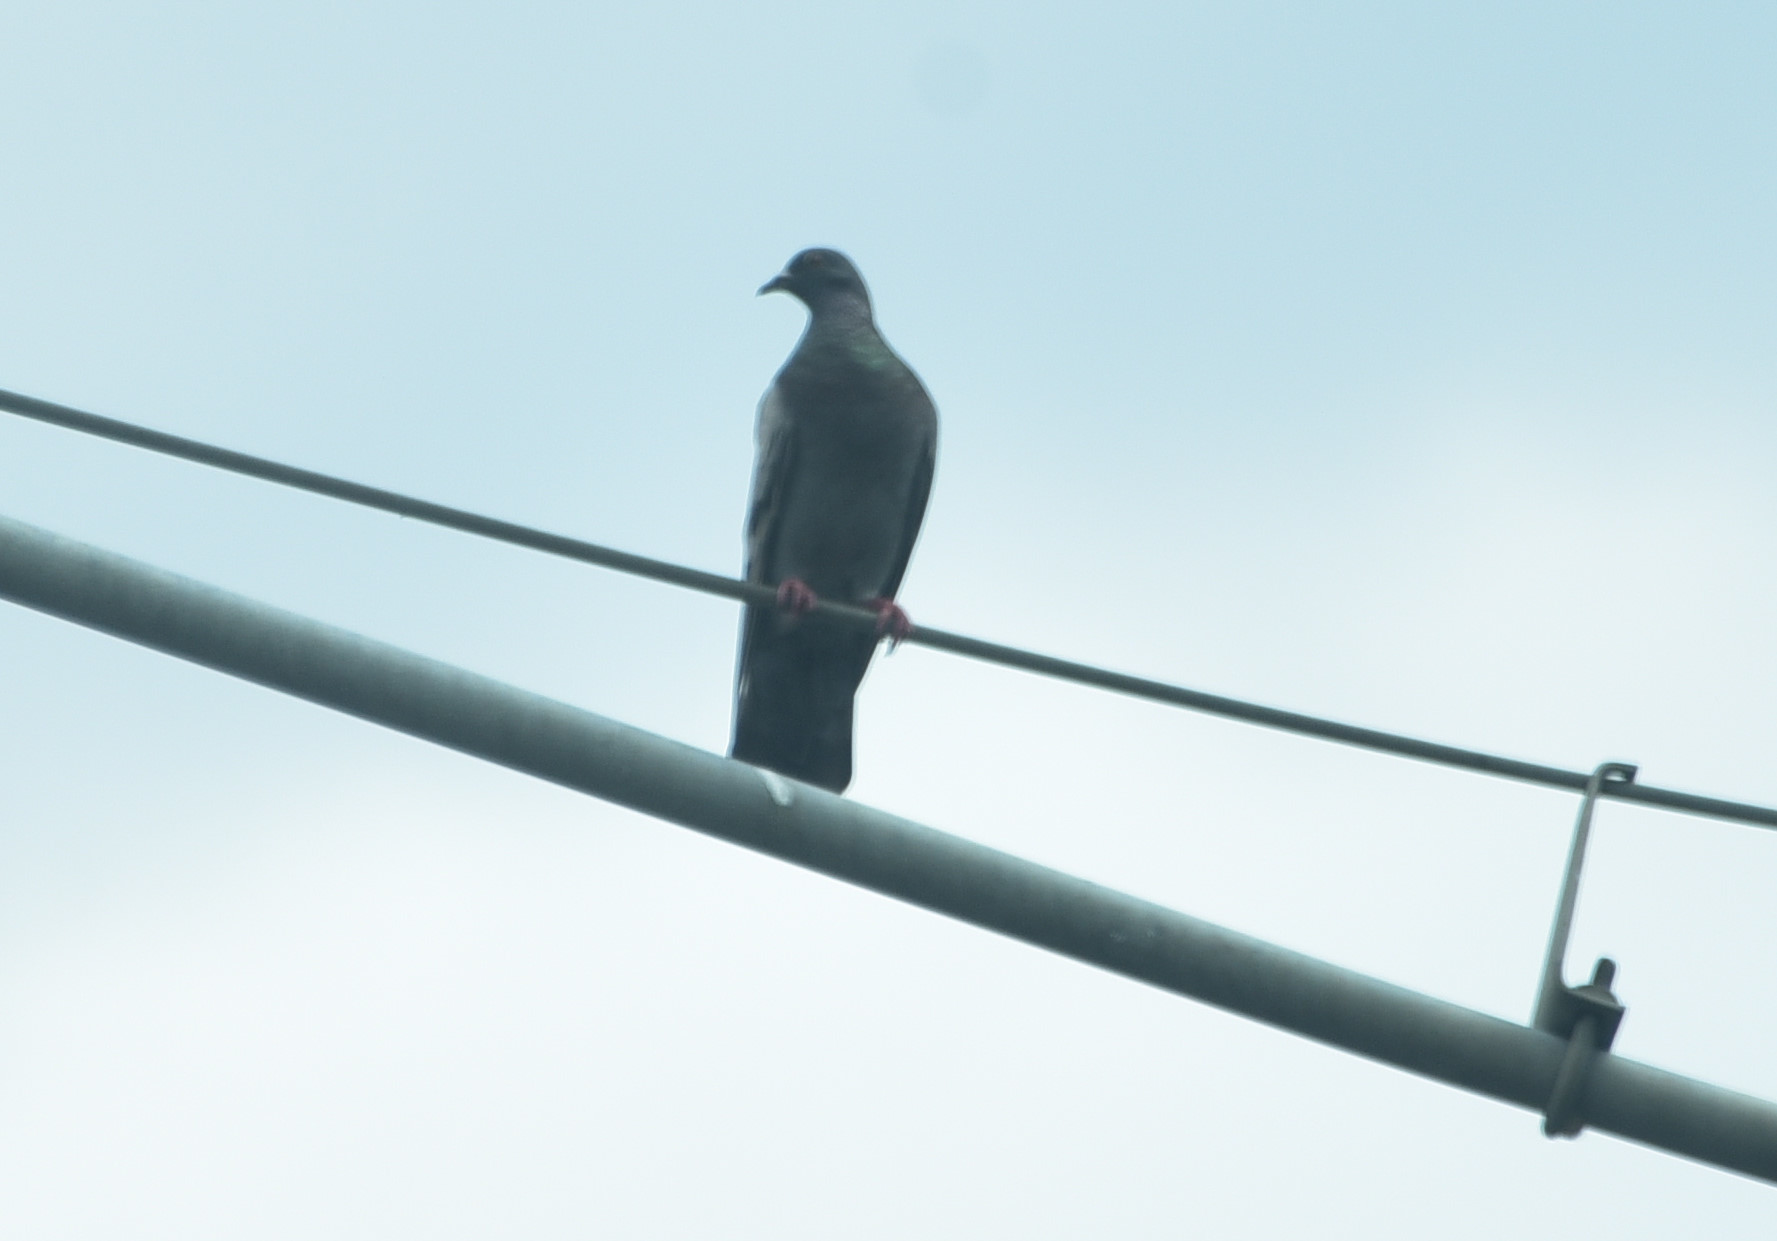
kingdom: Animalia
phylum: Chordata
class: Aves
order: Columbiformes
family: Columbidae
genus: Columba
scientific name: Columba livia
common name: Rock pigeon
